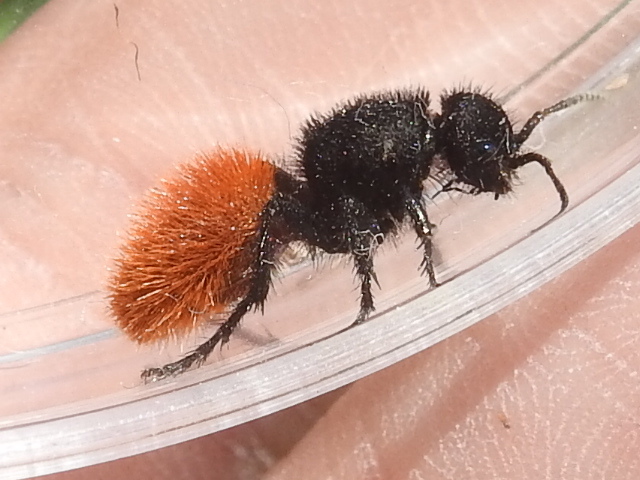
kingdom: Animalia
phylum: Arthropoda
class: Insecta
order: Hymenoptera
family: Mutillidae
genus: Dasymutilla
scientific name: Dasymutilla
